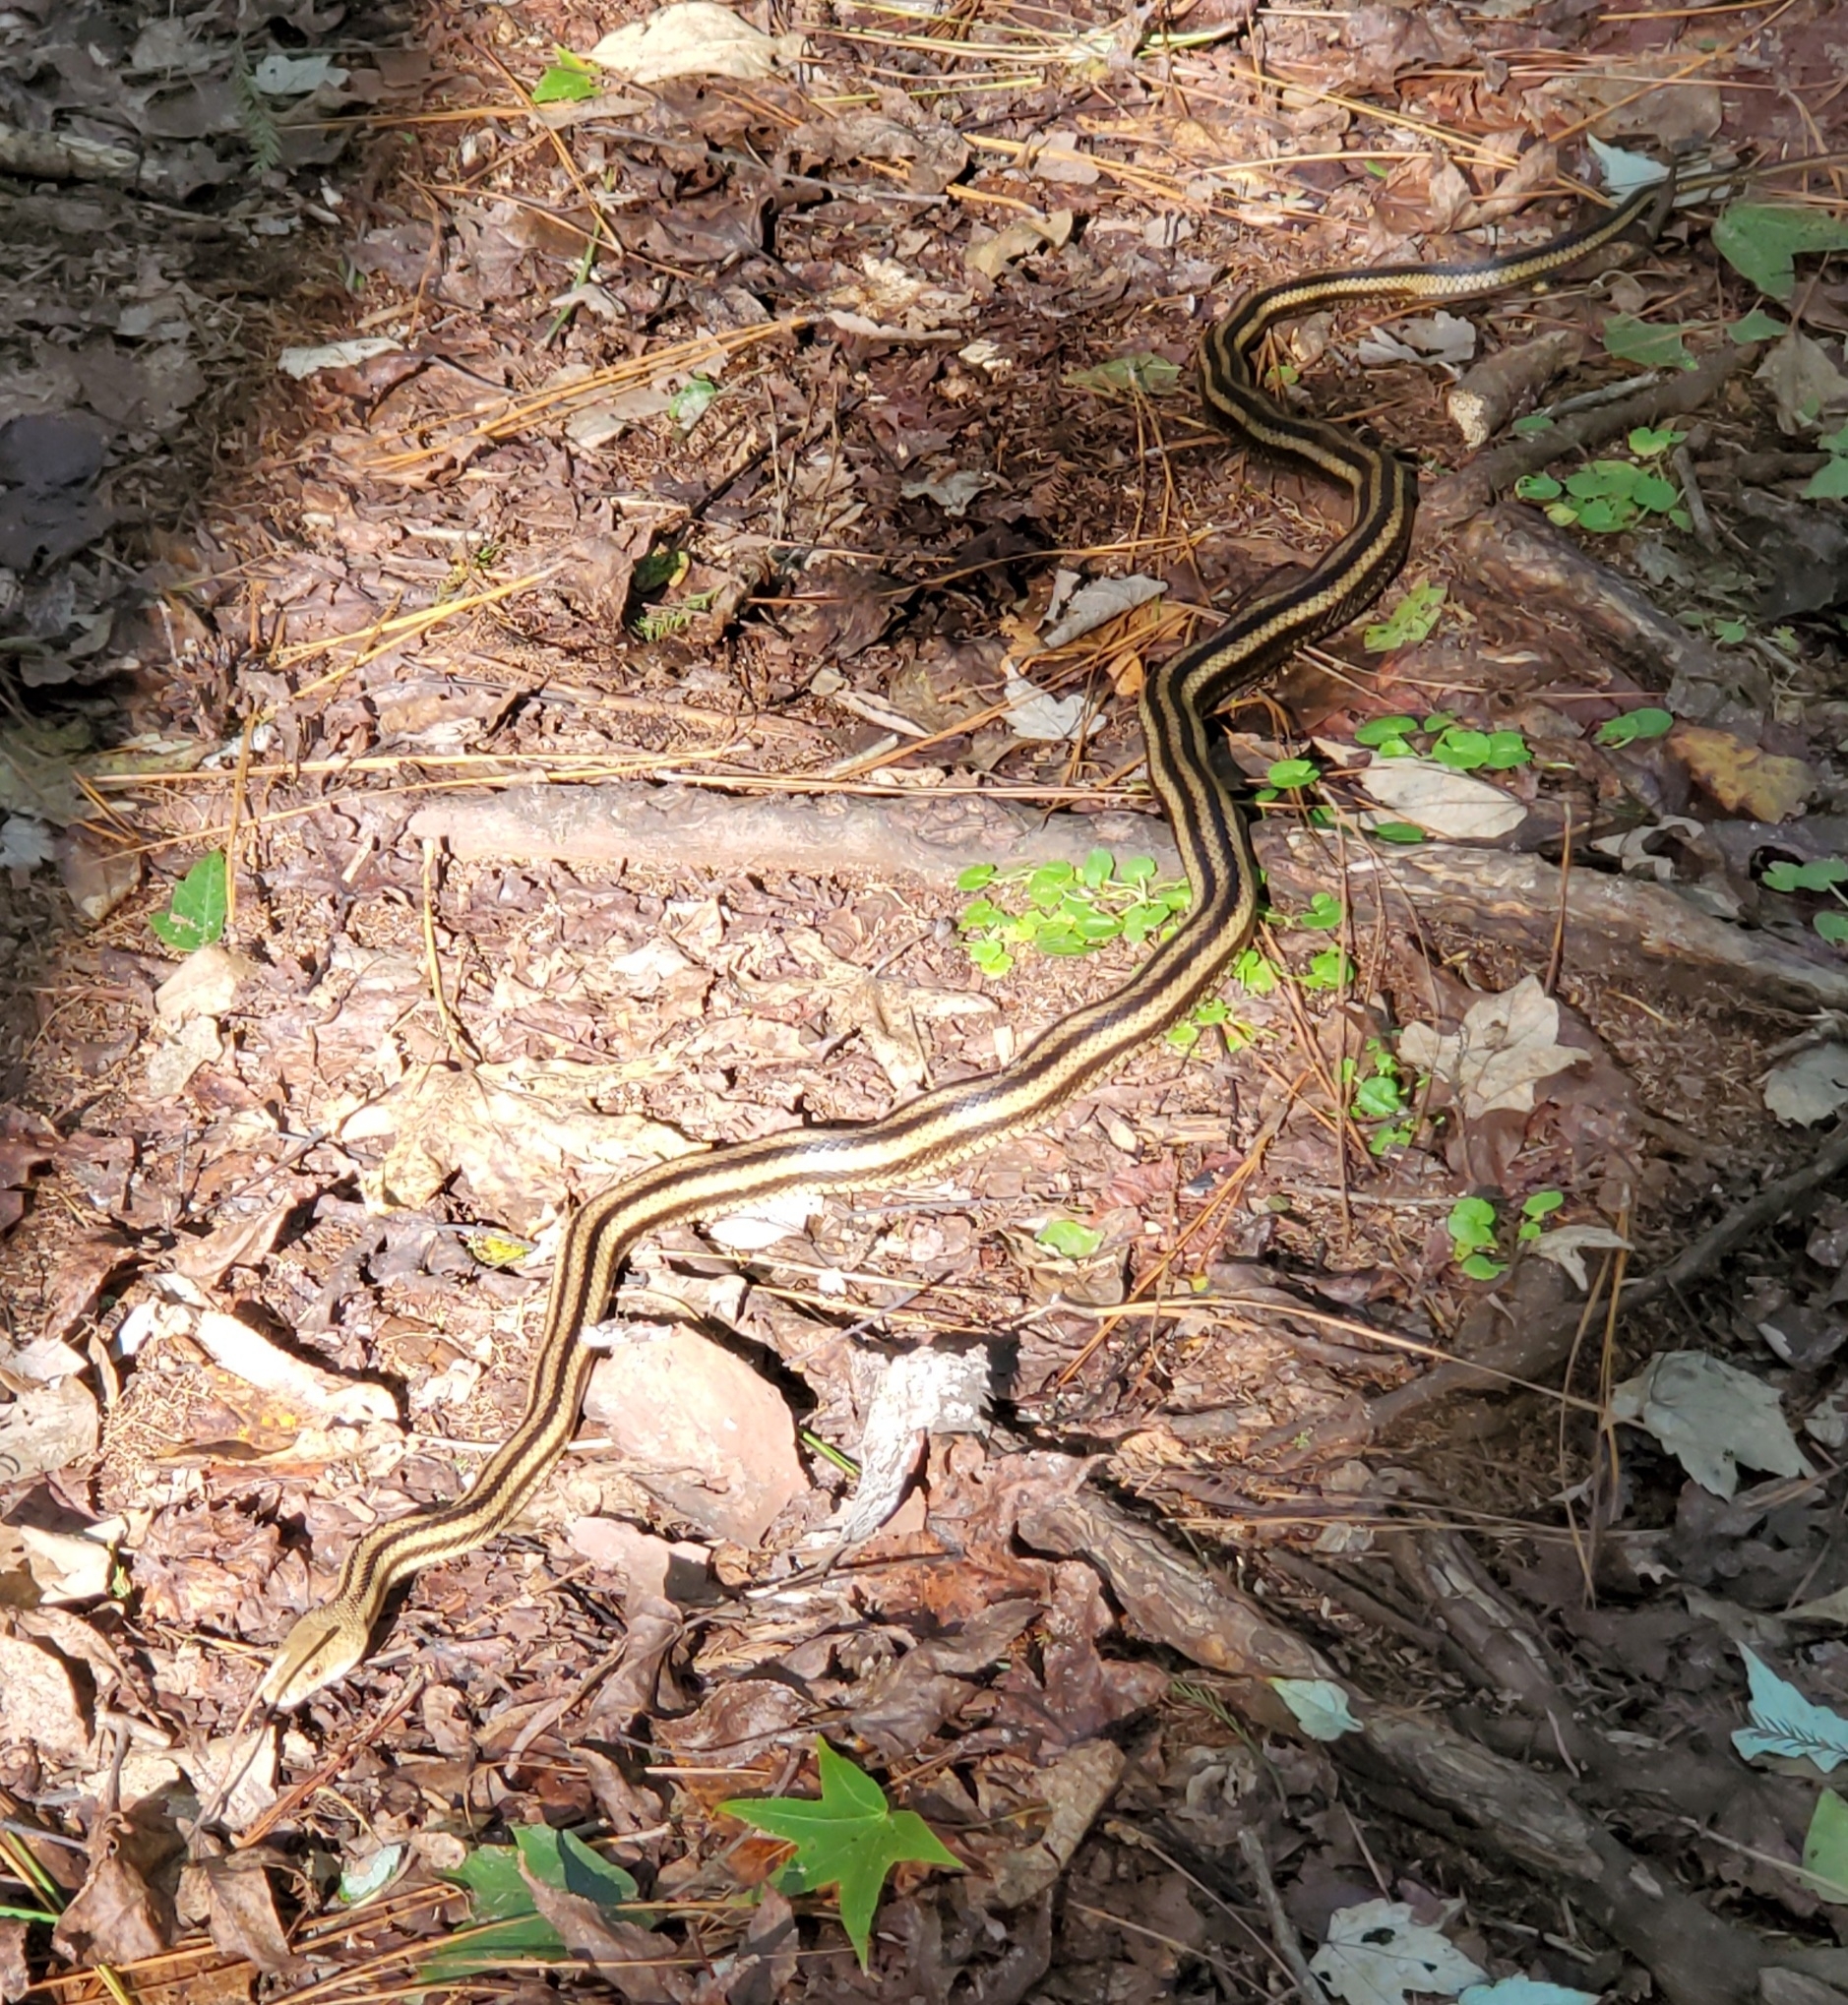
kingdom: Animalia
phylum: Chordata
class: Squamata
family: Colubridae
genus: Pantherophis
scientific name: Pantherophis alleghaniensis
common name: Eastern rat snake
